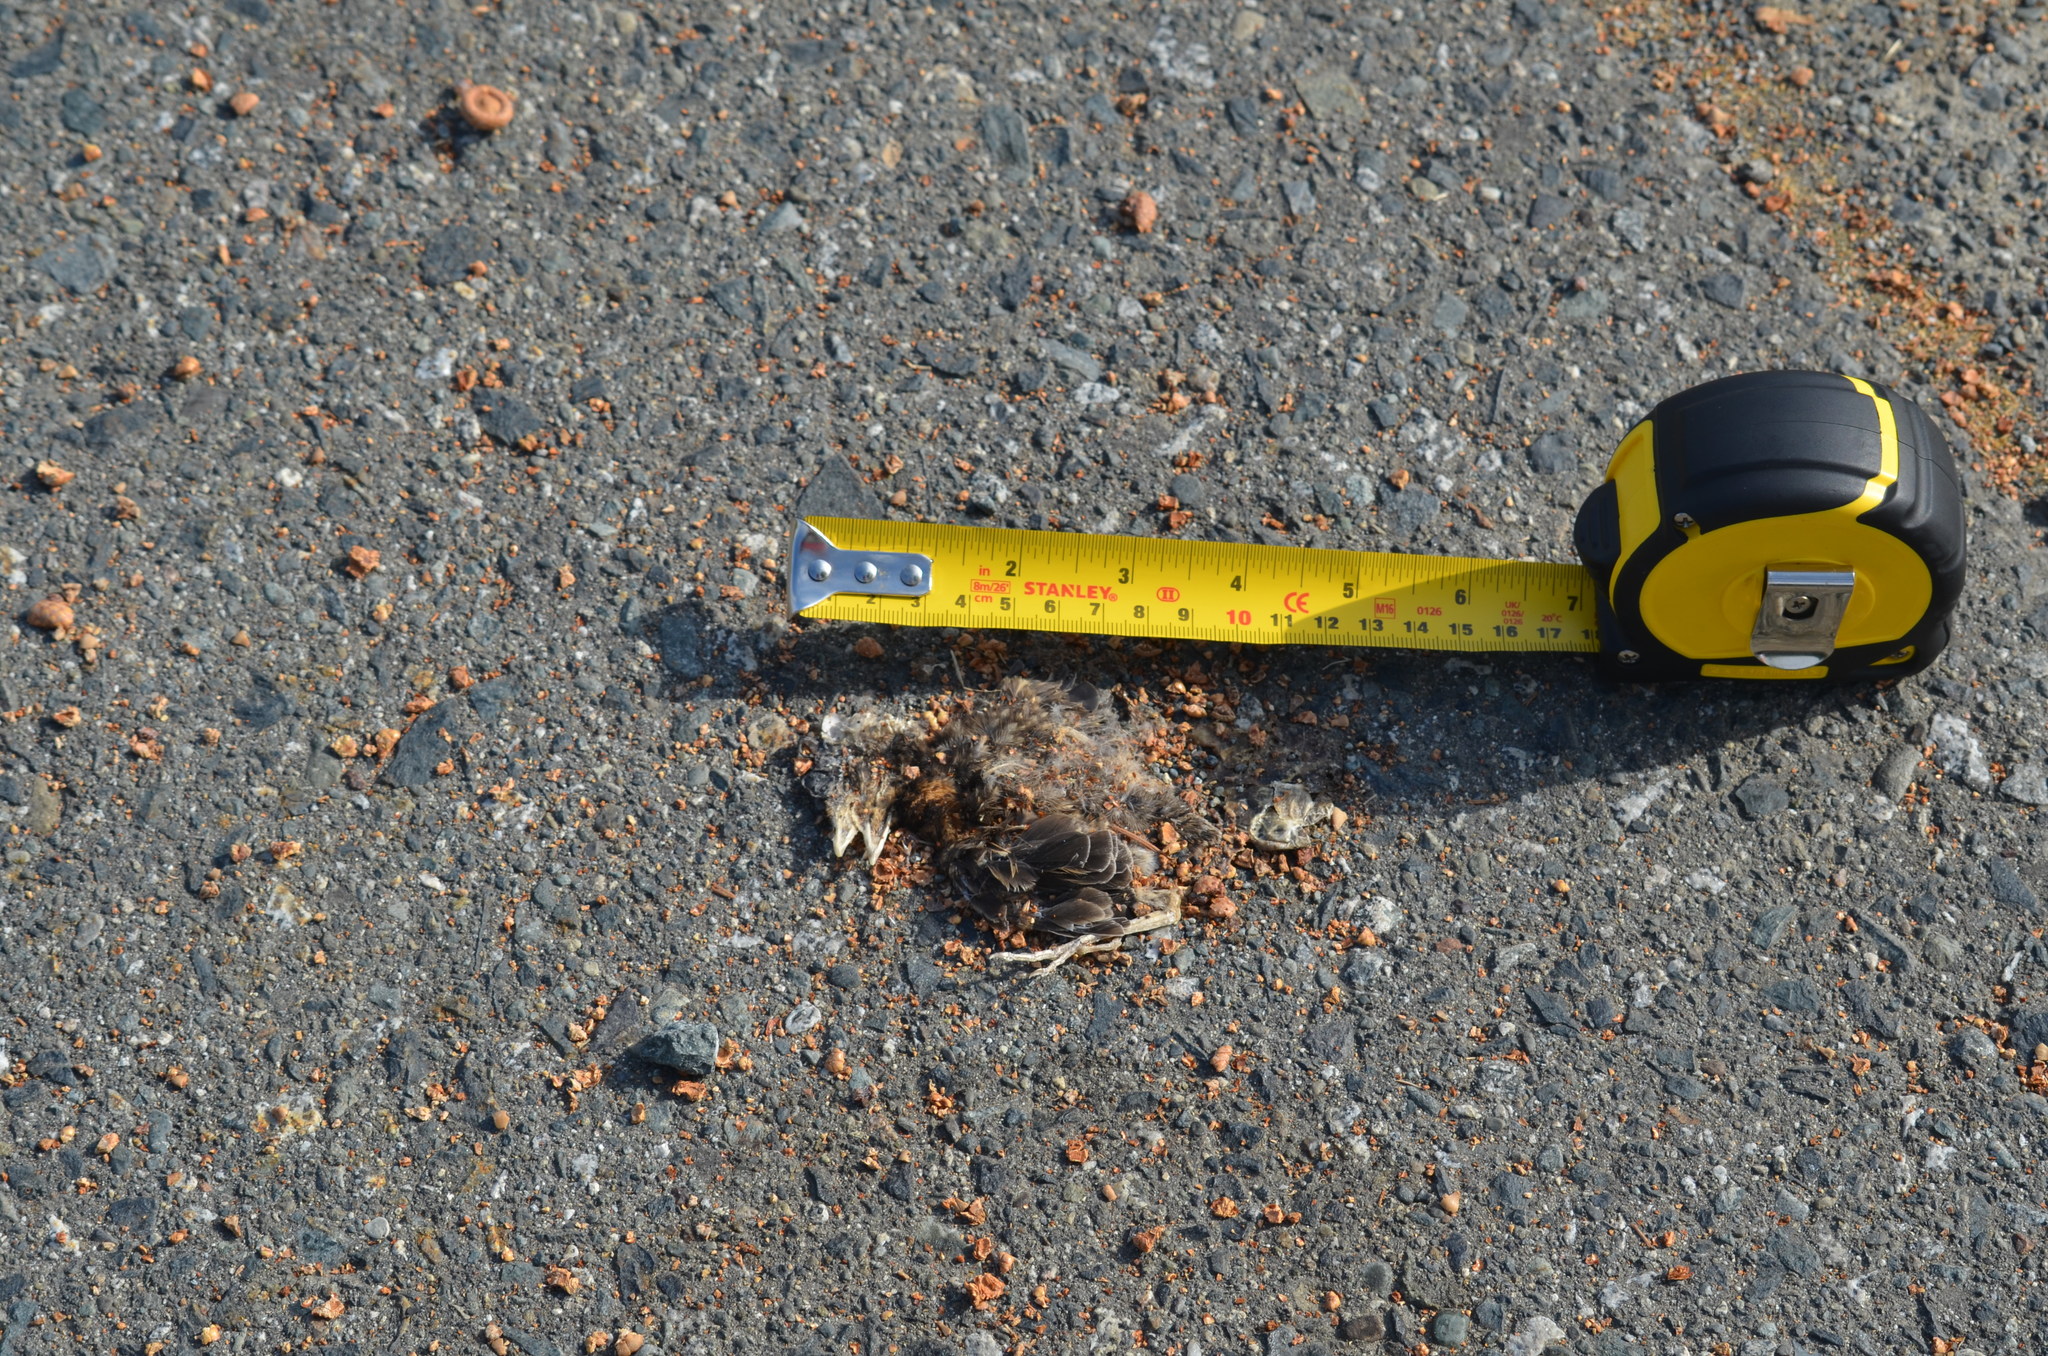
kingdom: Animalia
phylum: Chordata
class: Aves
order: Passeriformes
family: Turdidae
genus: Turdus
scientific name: Turdus migratorius
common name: American robin
